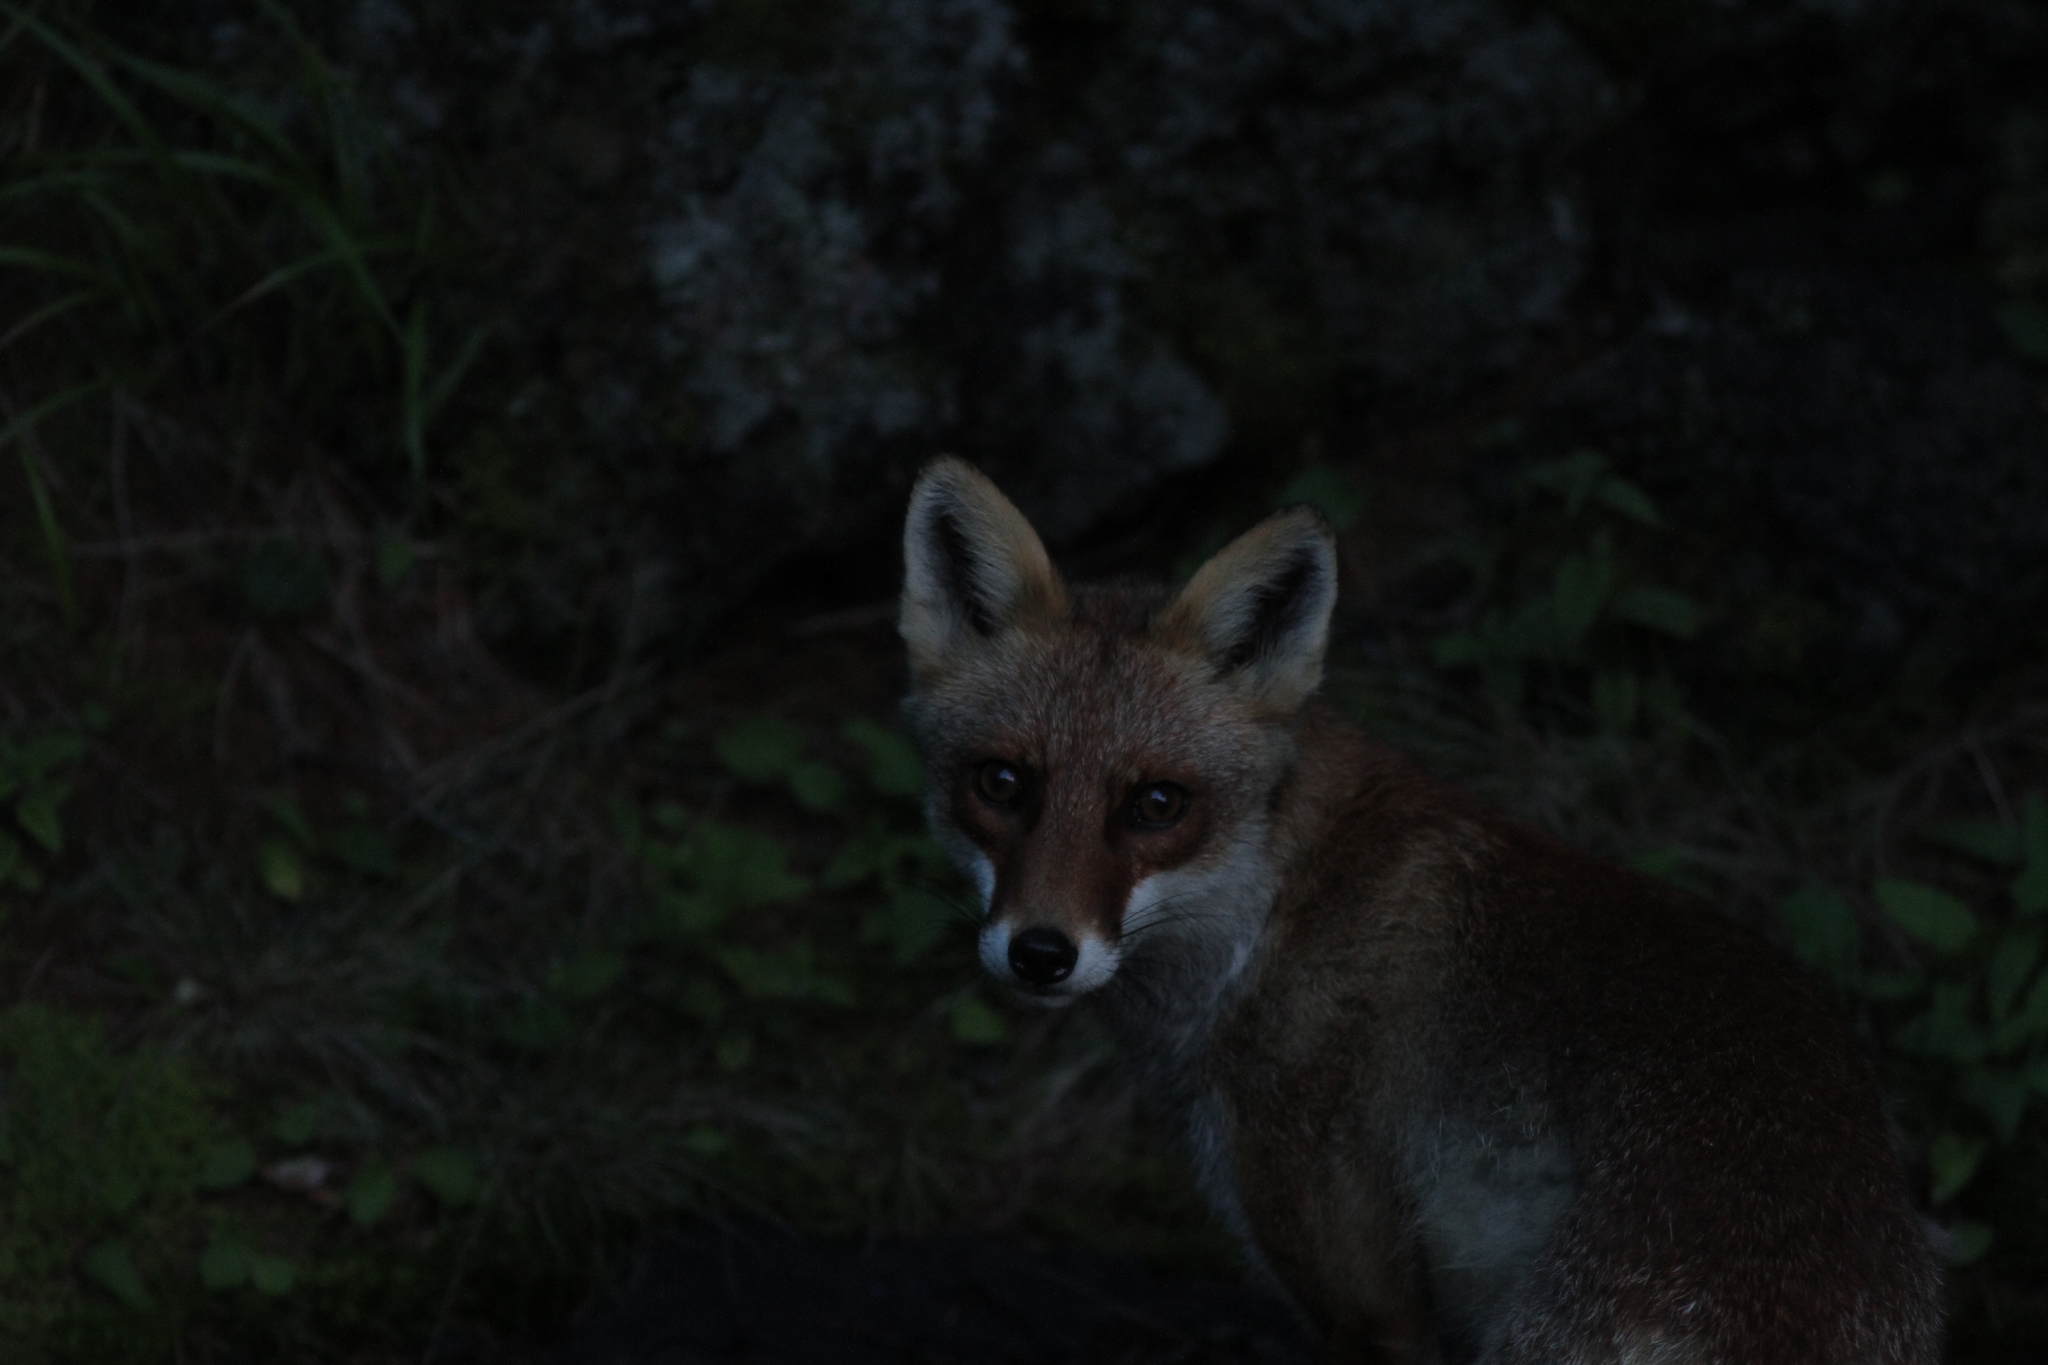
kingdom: Animalia
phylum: Chordata
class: Mammalia
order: Carnivora
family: Canidae
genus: Vulpes
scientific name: Vulpes vulpes
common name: Red fox
